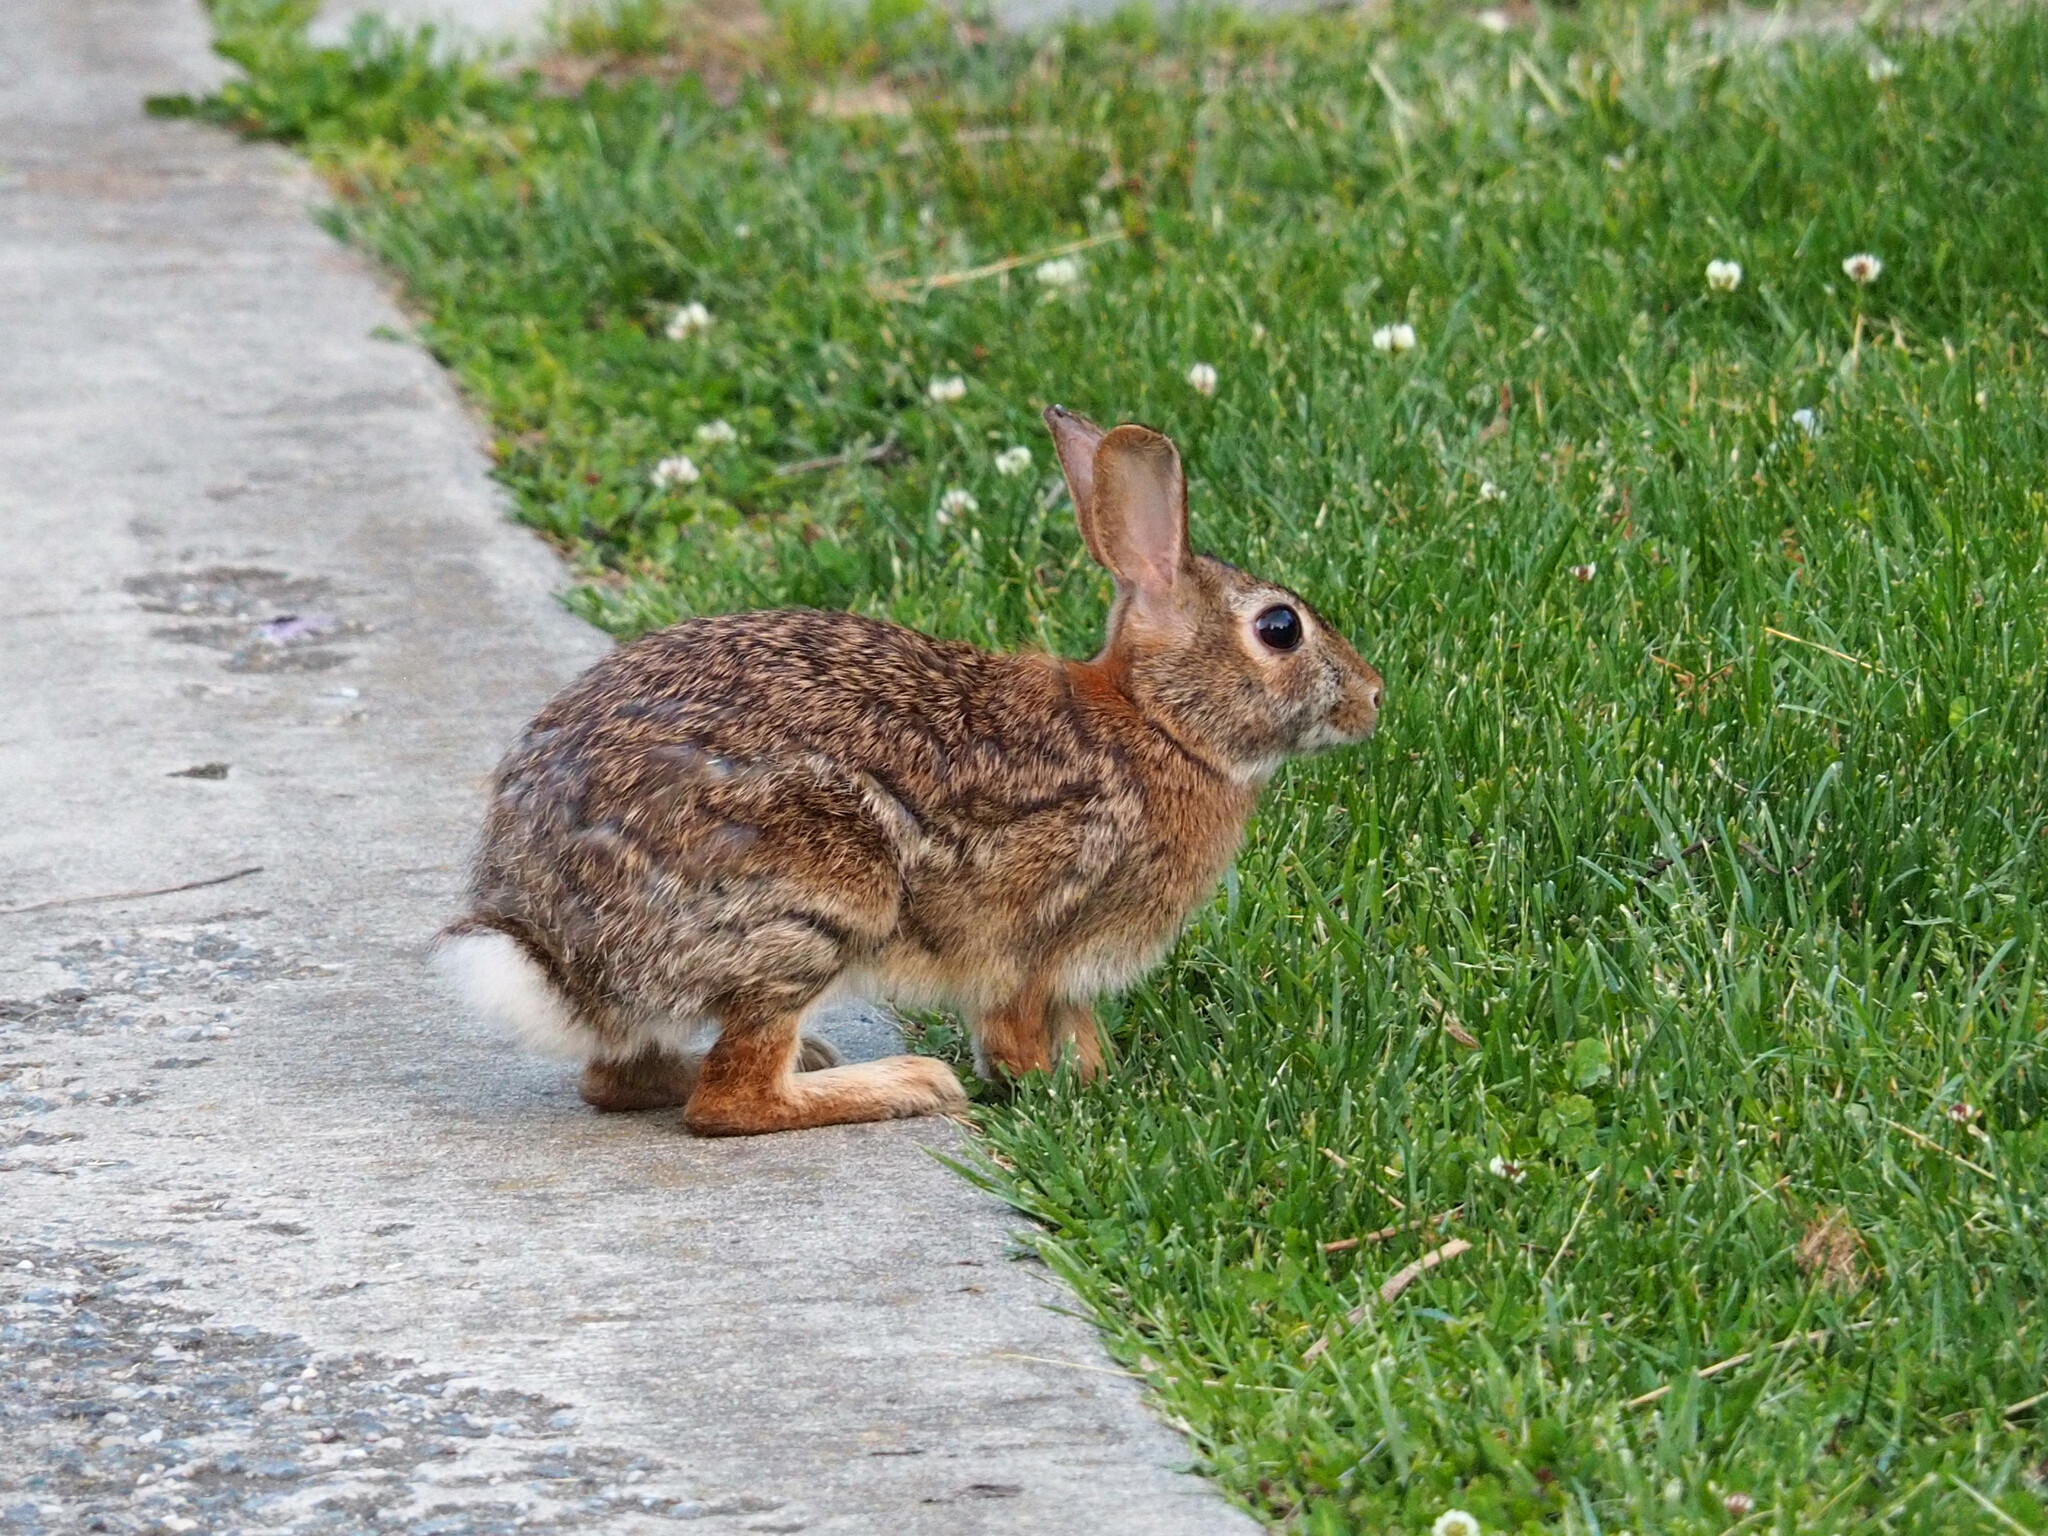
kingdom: Animalia
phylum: Chordata
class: Mammalia
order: Lagomorpha
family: Leporidae
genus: Sylvilagus
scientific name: Sylvilagus floridanus
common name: Eastern cottontail
